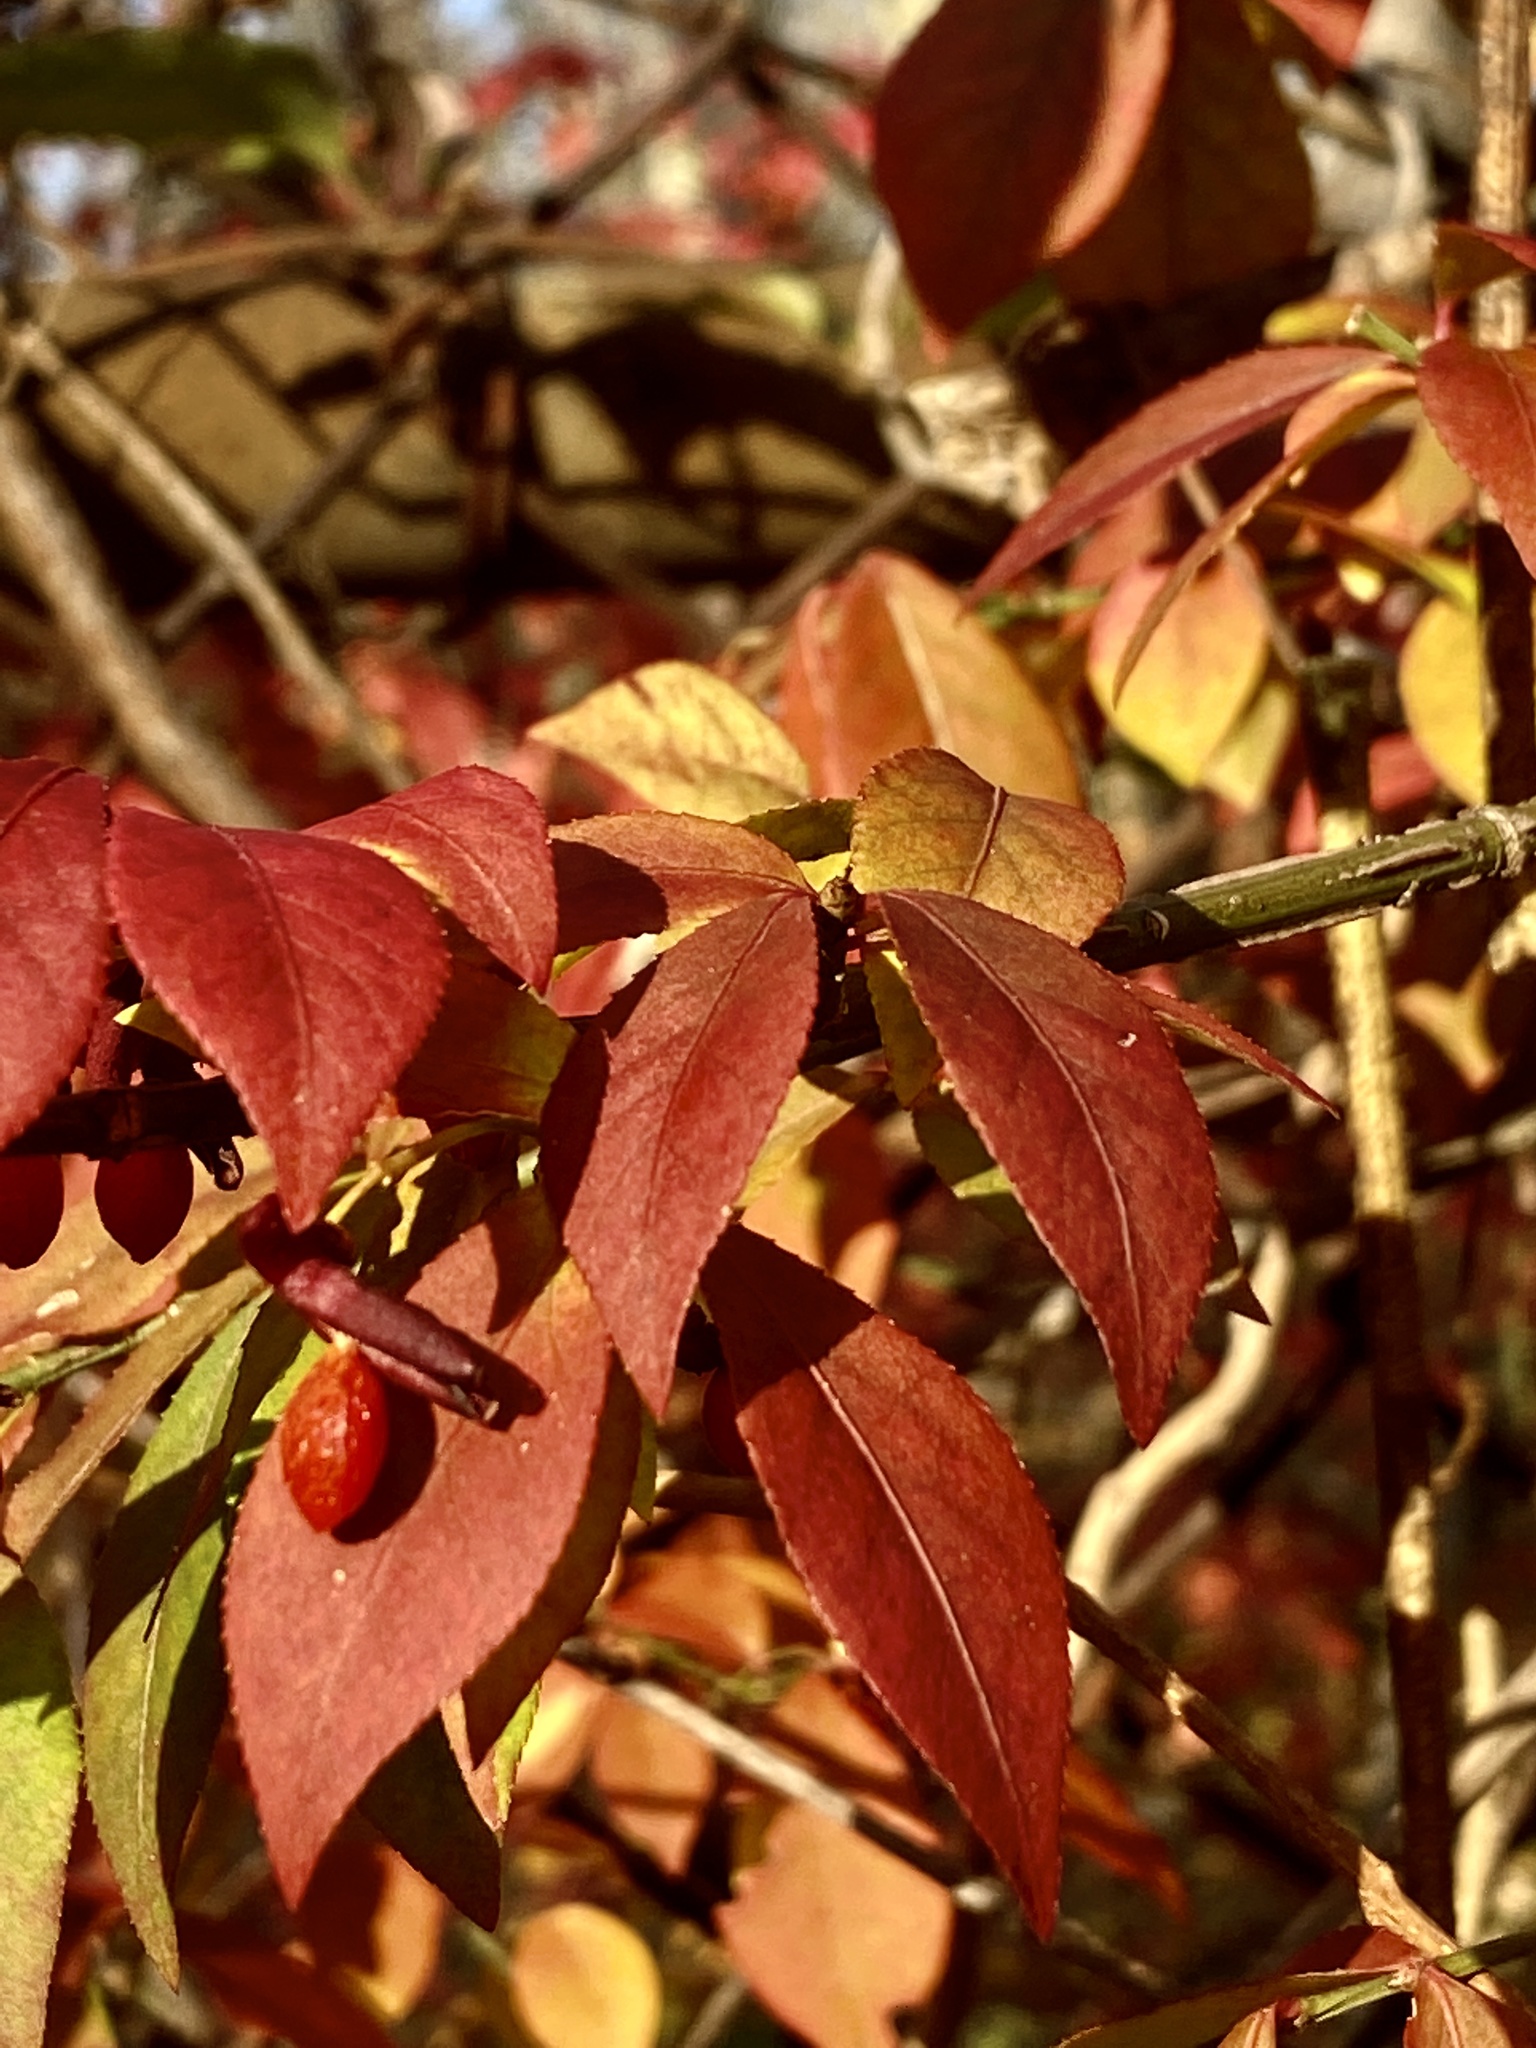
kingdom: Plantae
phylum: Tracheophyta
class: Magnoliopsida
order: Celastrales
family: Celastraceae
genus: Euonymus
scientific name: Euonymus alatus
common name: Winged euonymus
